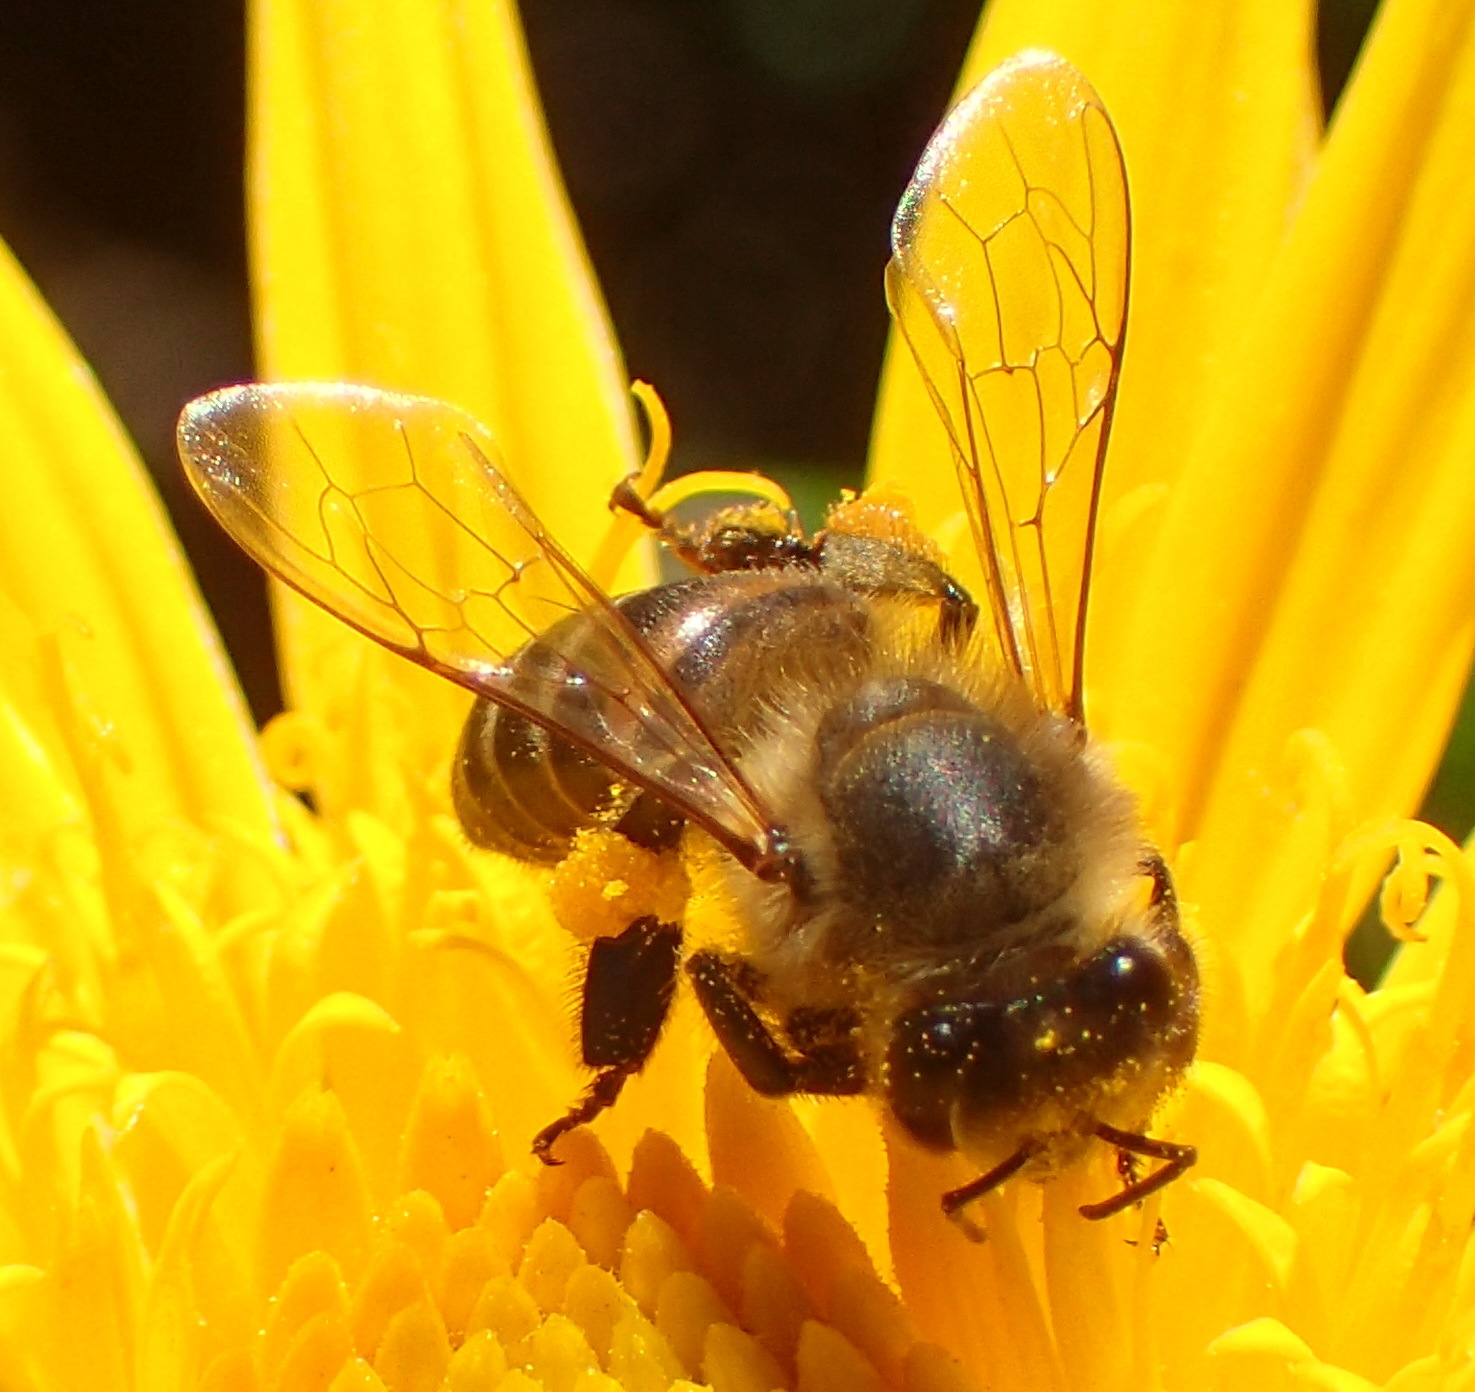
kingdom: Animalia
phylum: Arthropoda
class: Insecta
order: Hymenoptera
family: Apidae
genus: Apis
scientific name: Apis mellifera
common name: Honey bee
